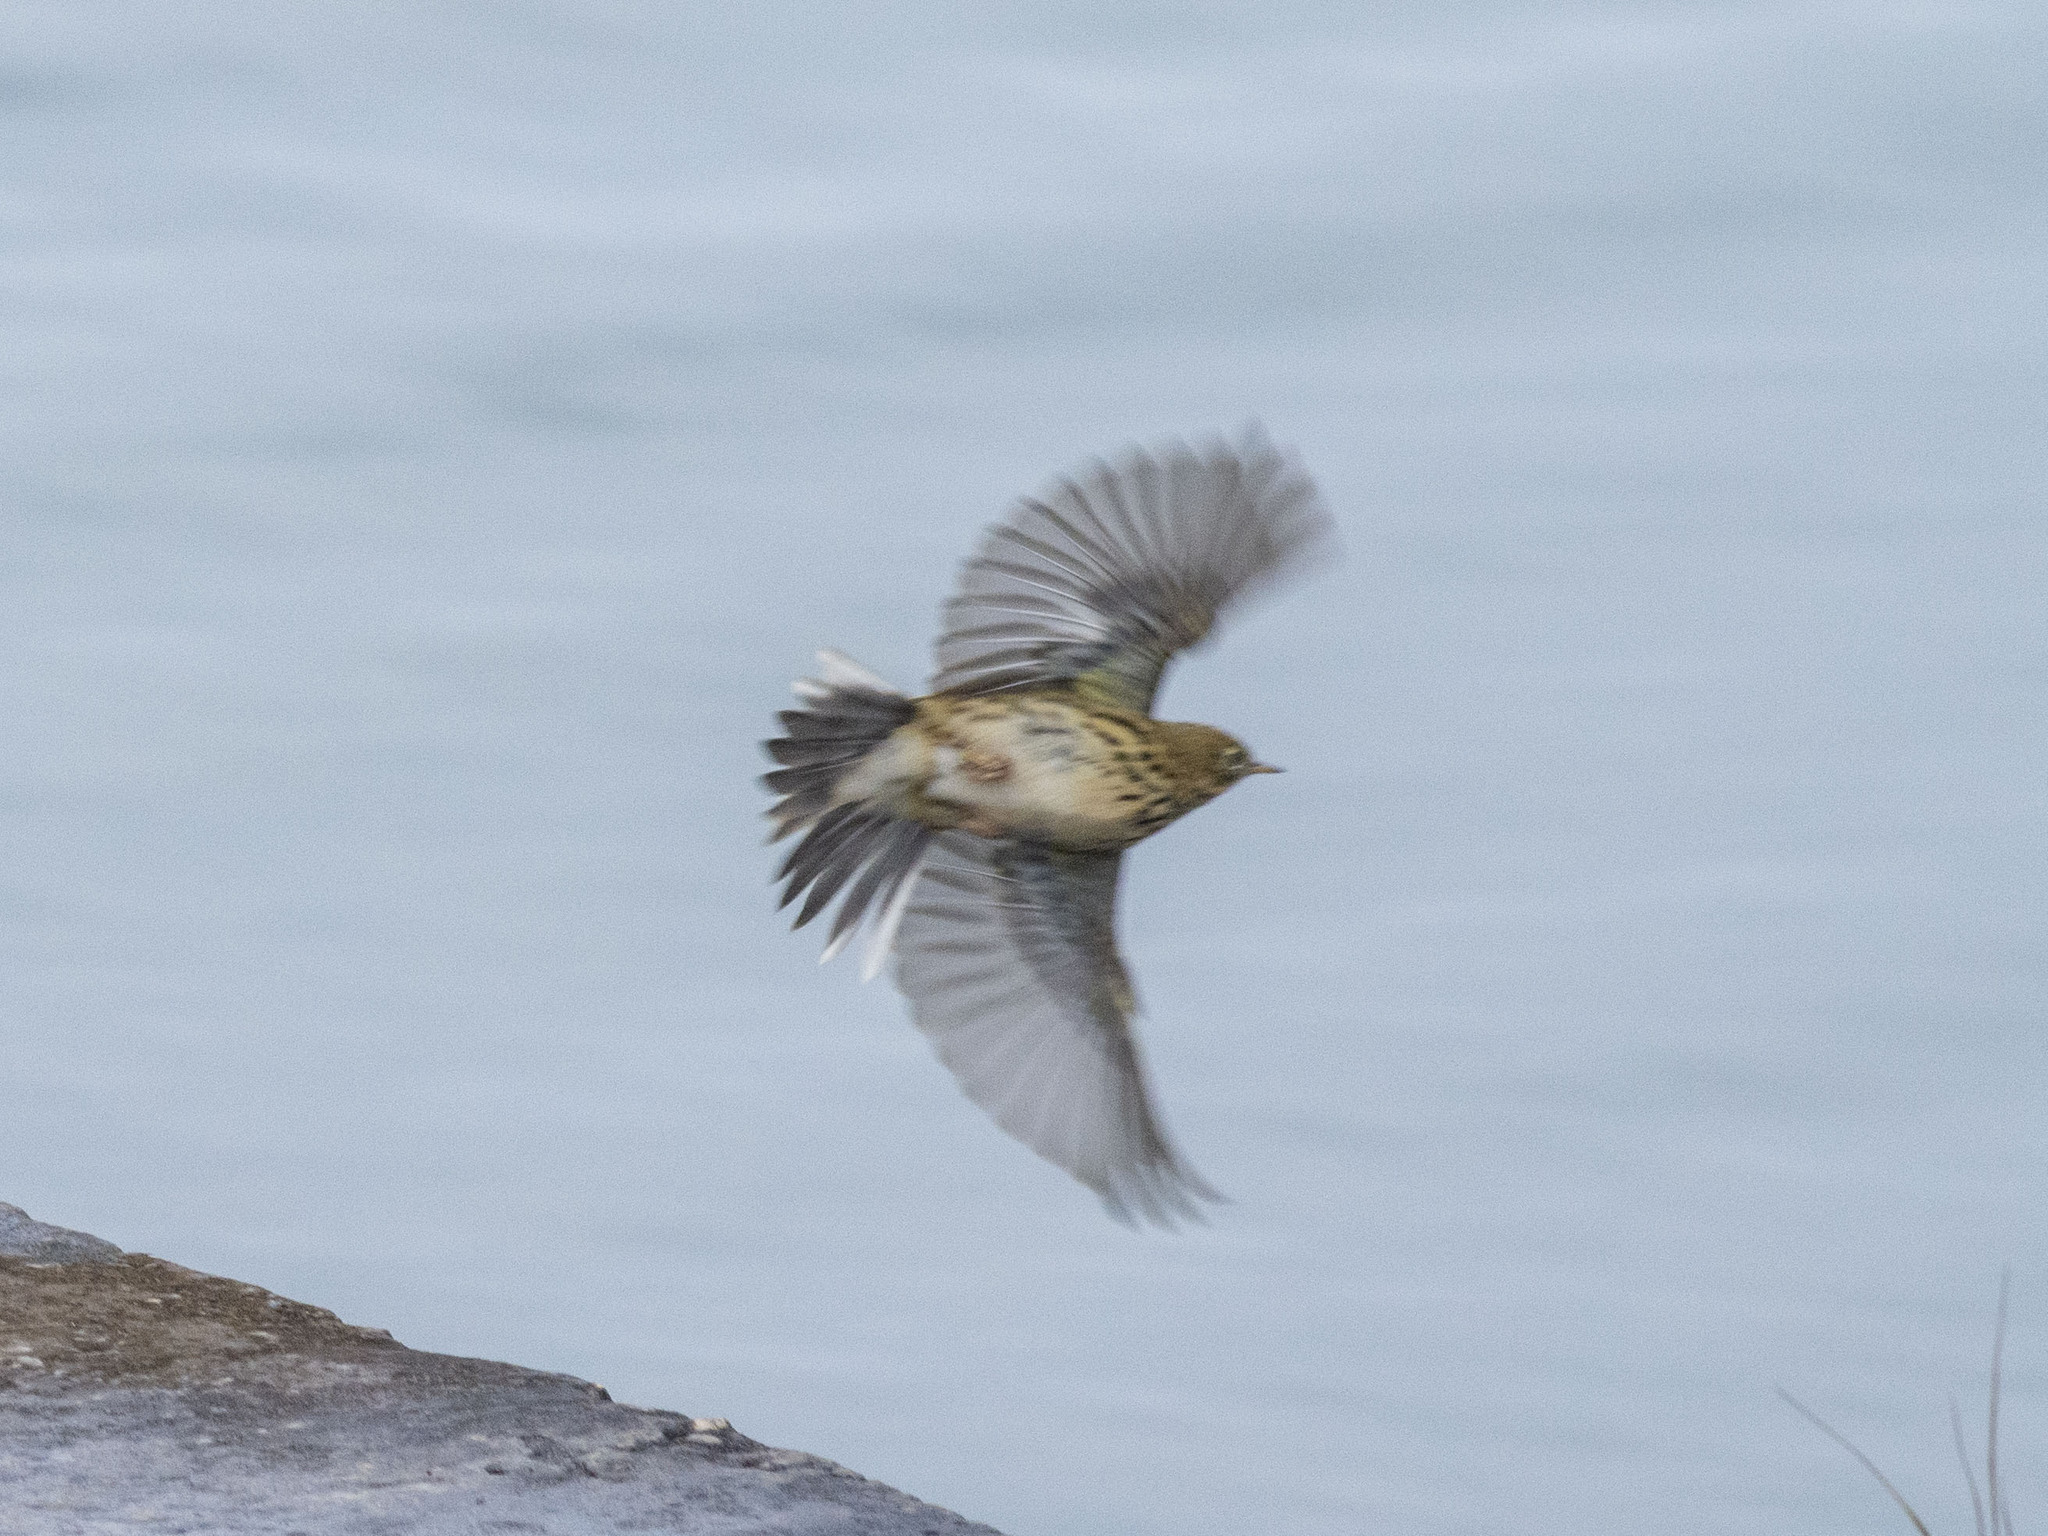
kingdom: Animalia
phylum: Chordata
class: Aves
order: Passeriformes
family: Motacillidae
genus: Anthus
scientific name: Anthus pratensis
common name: Meadow pipit
